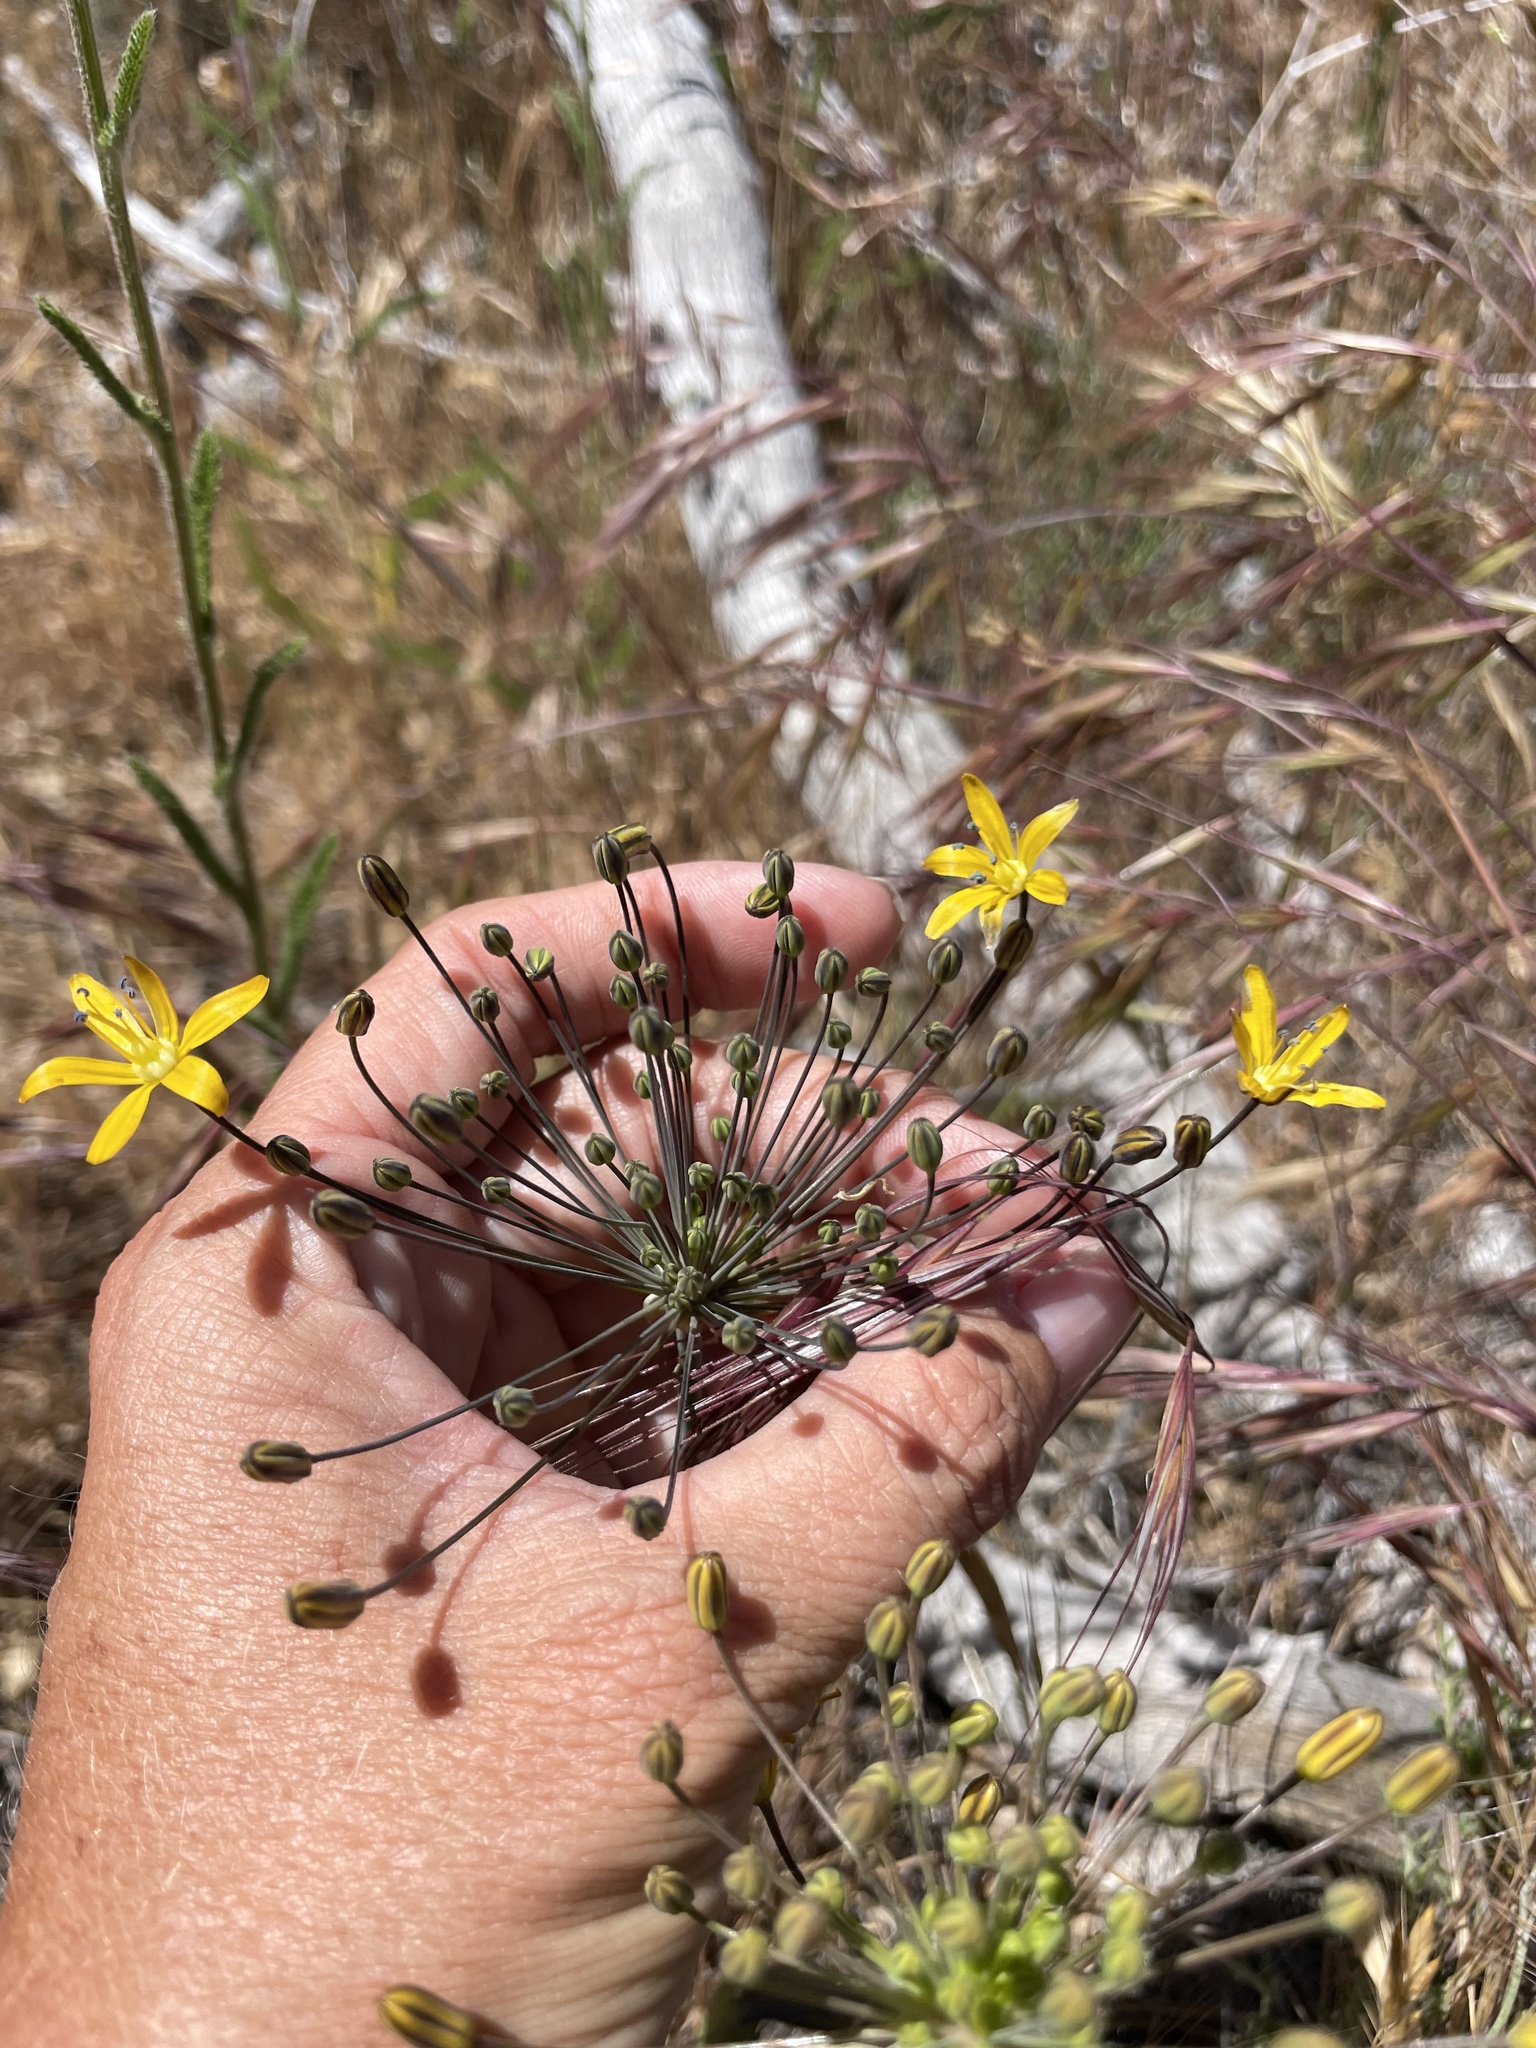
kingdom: Plantae
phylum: Tracheophyta
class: Liliopsida
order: Asparagales
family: Asparagaceae
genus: Bloomeria
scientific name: Bloomeria crocea
